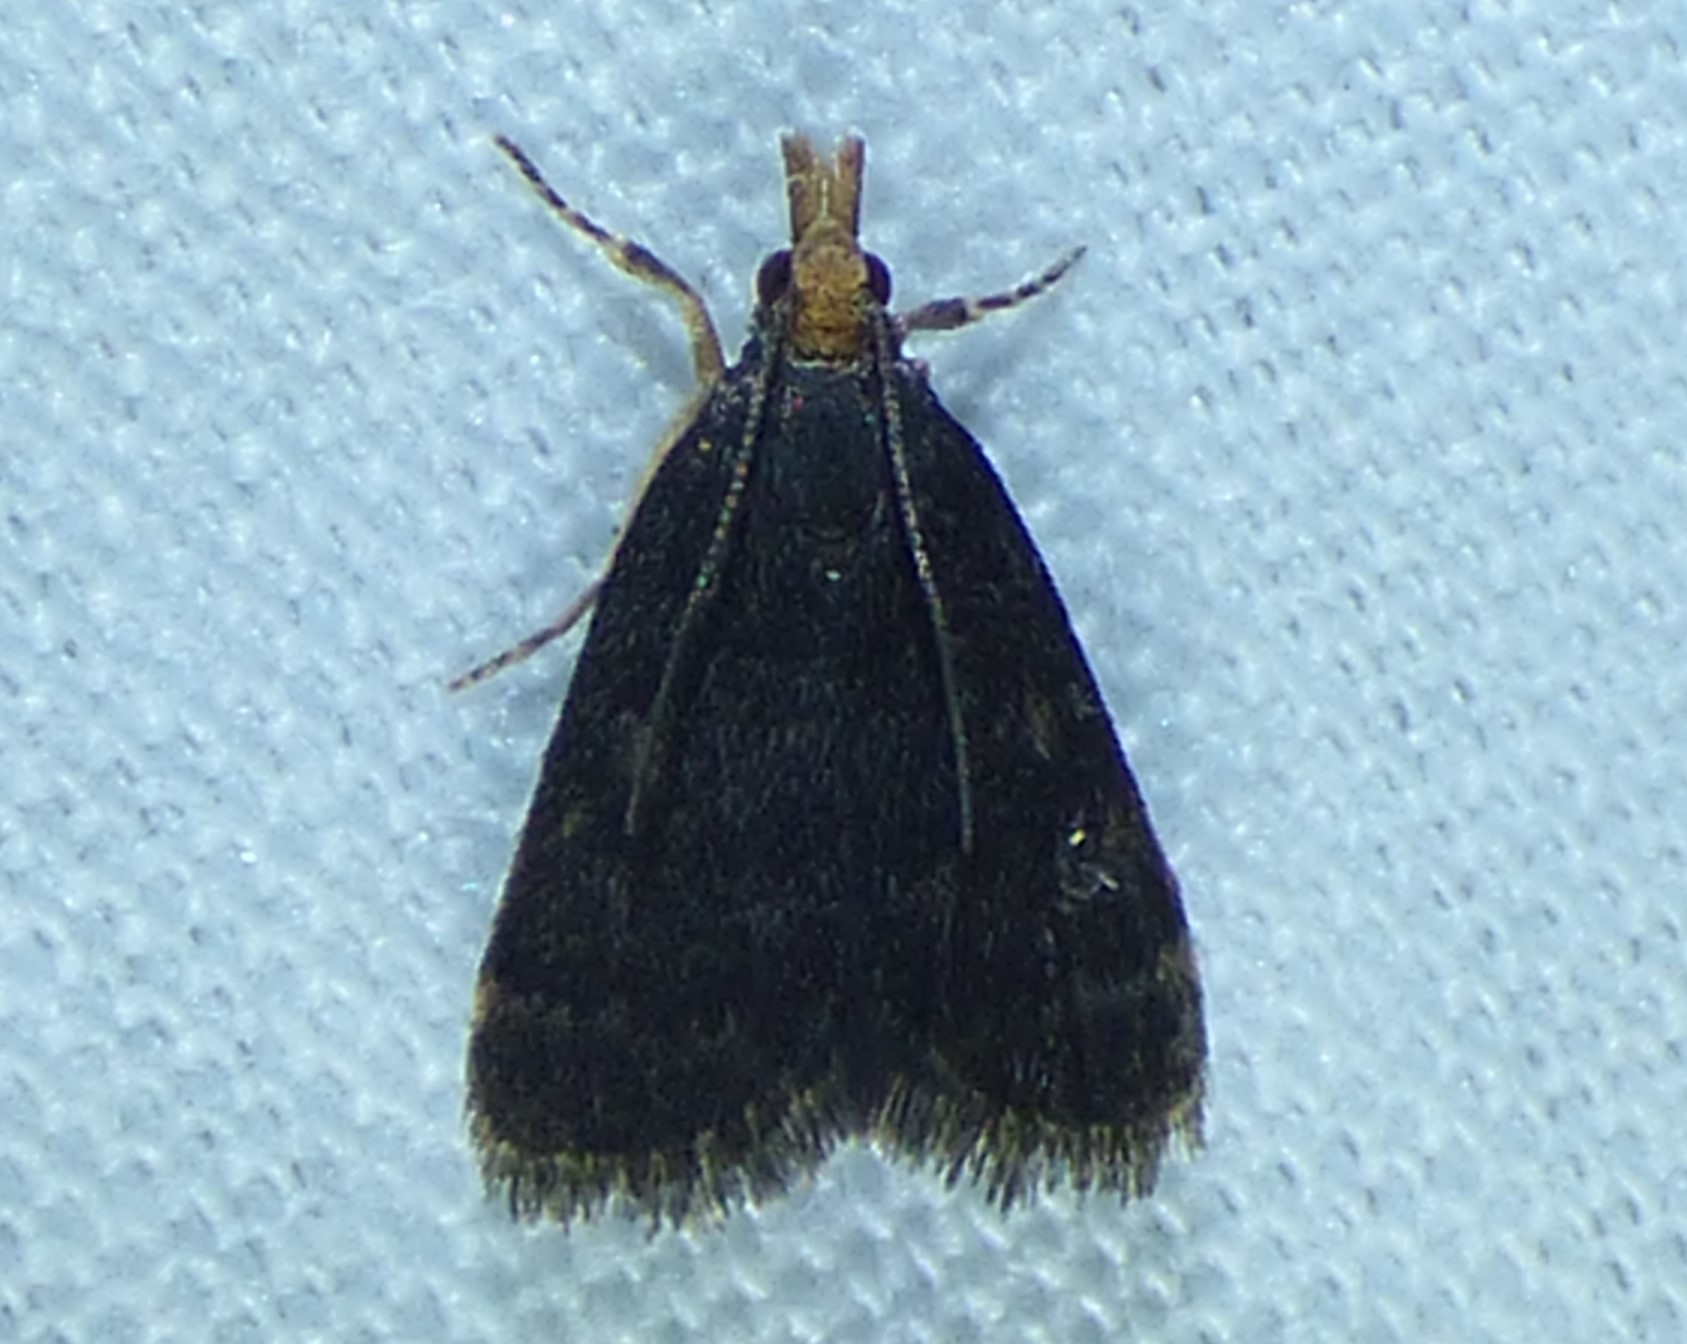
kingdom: Animalia
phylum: Arthropoda
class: Insecta
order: Lepidoptera
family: Crambidae
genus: Pyrausta
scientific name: Pyrausta merrickalis
